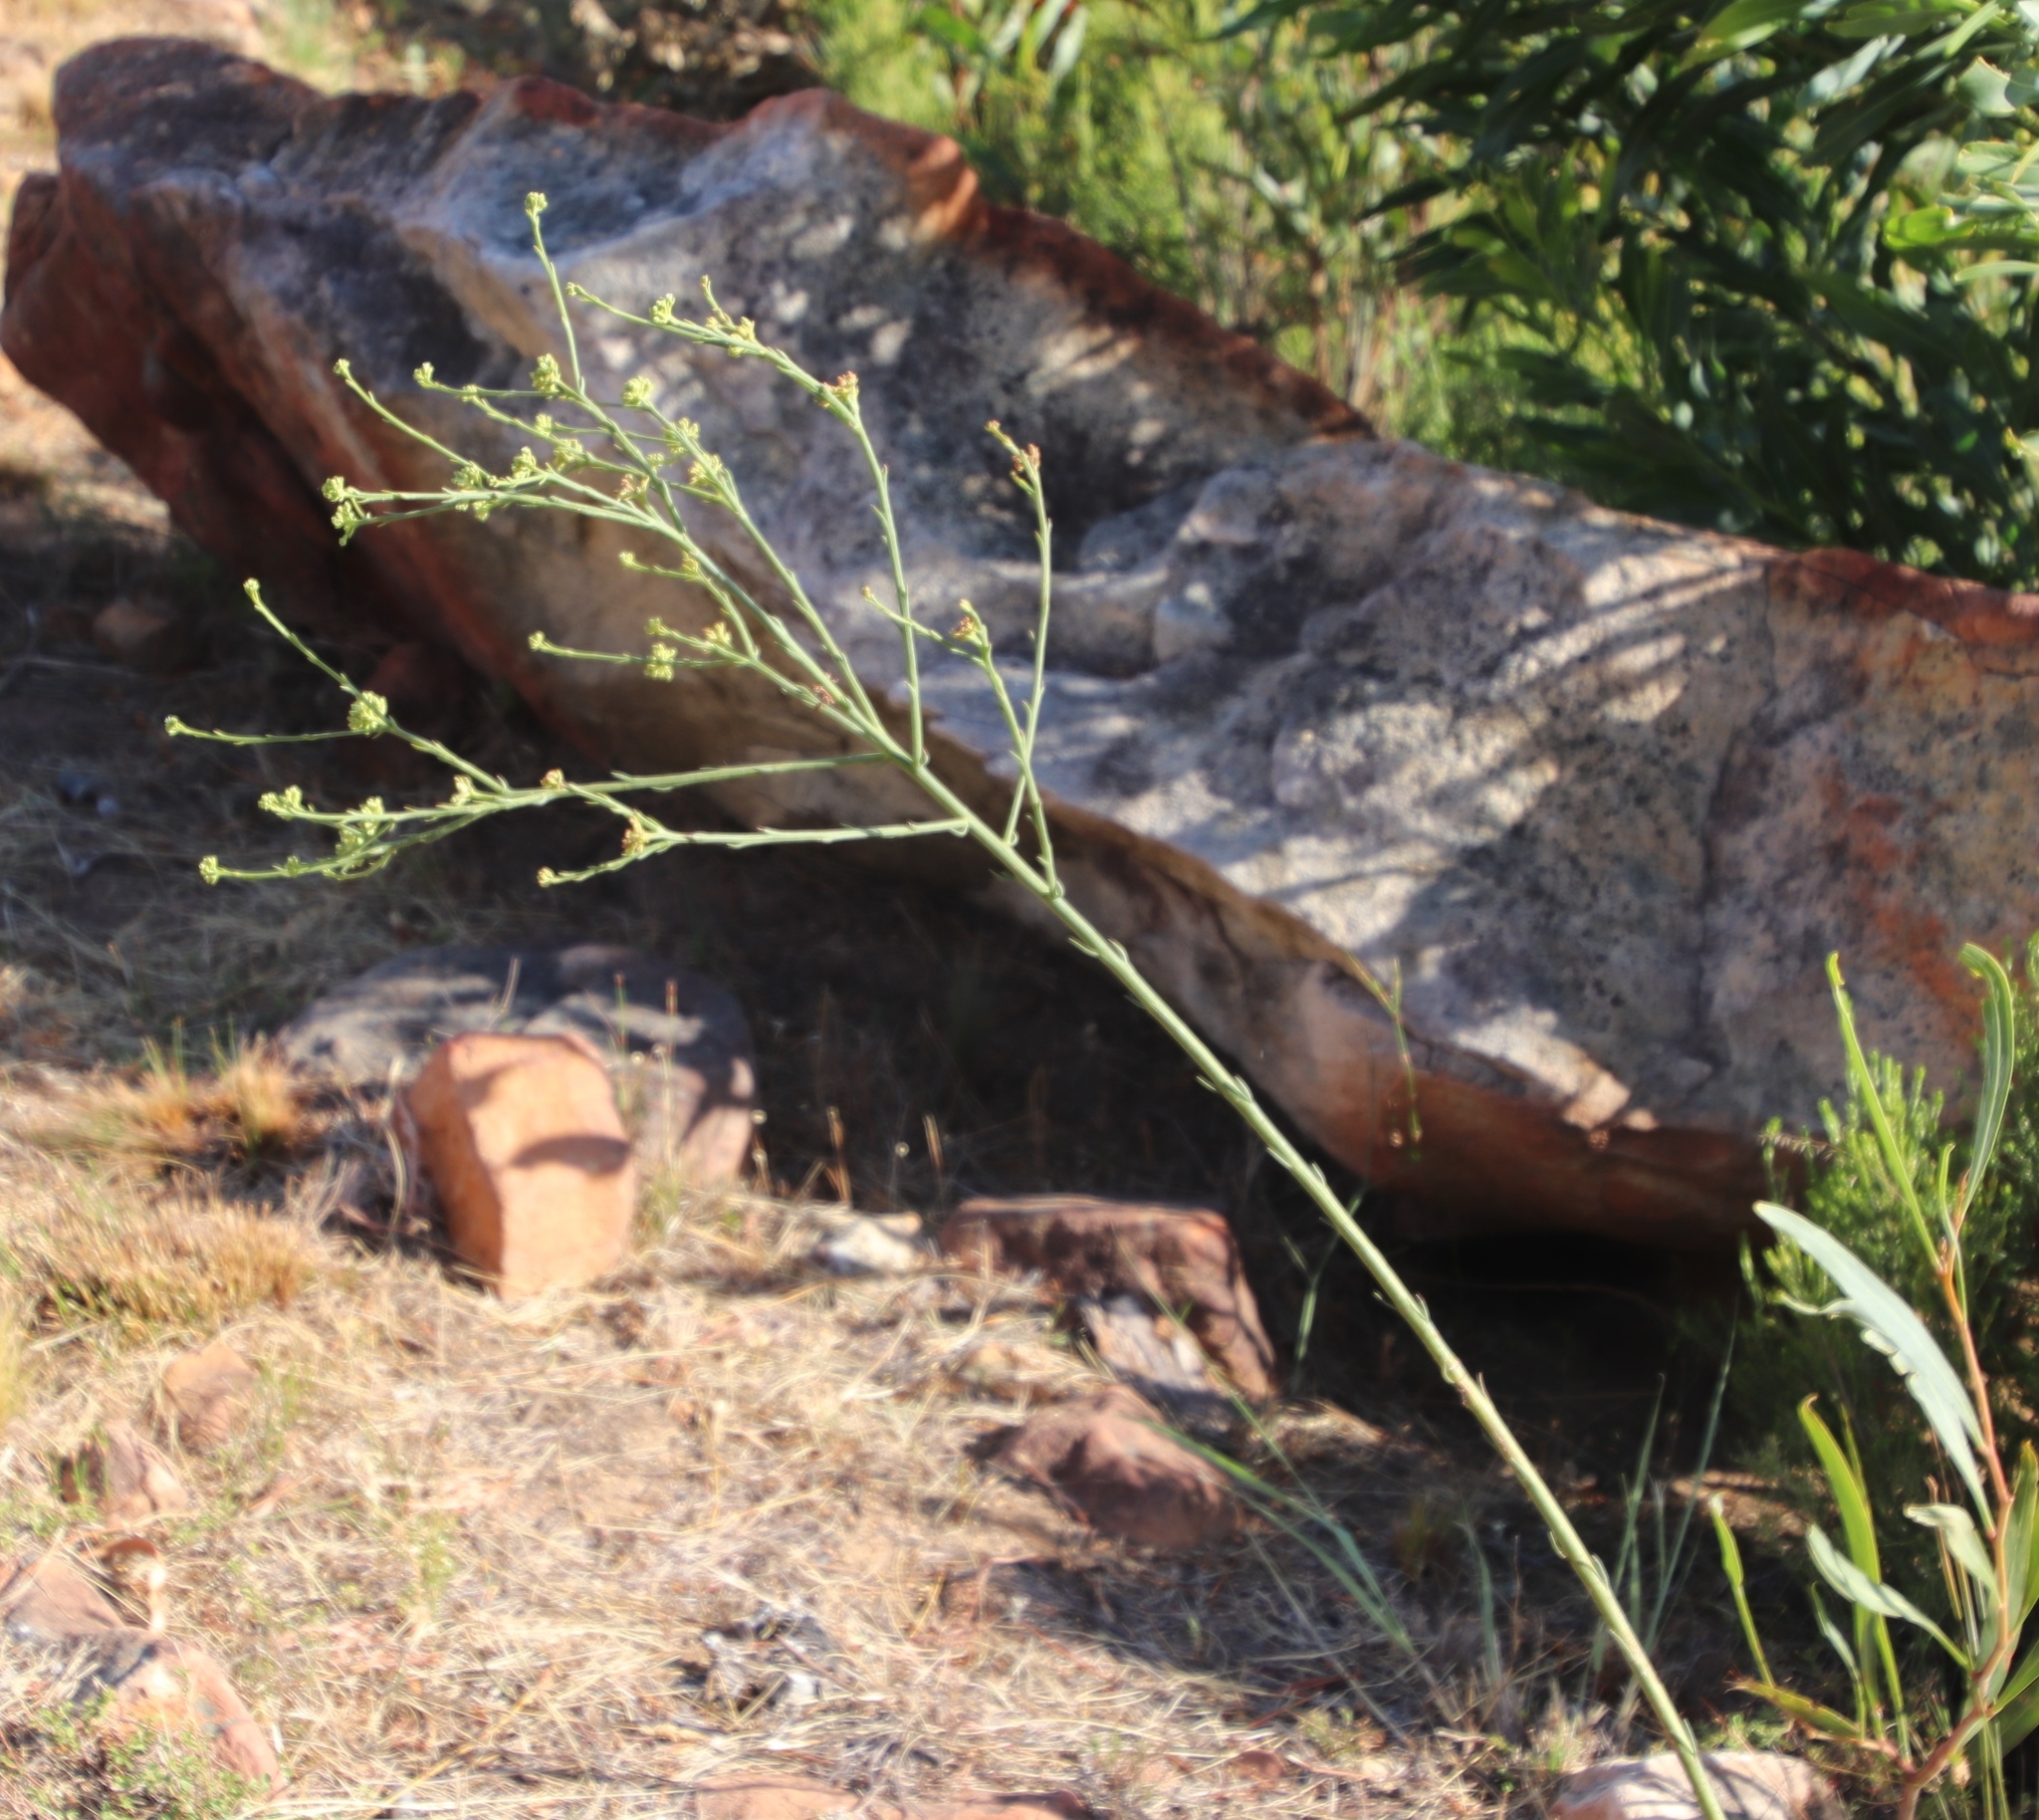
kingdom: Plantae
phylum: Tracheophyta
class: Magnoliopsida
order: Santalales
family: Thesiaceae
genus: Thesium
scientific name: Thesium strictum
